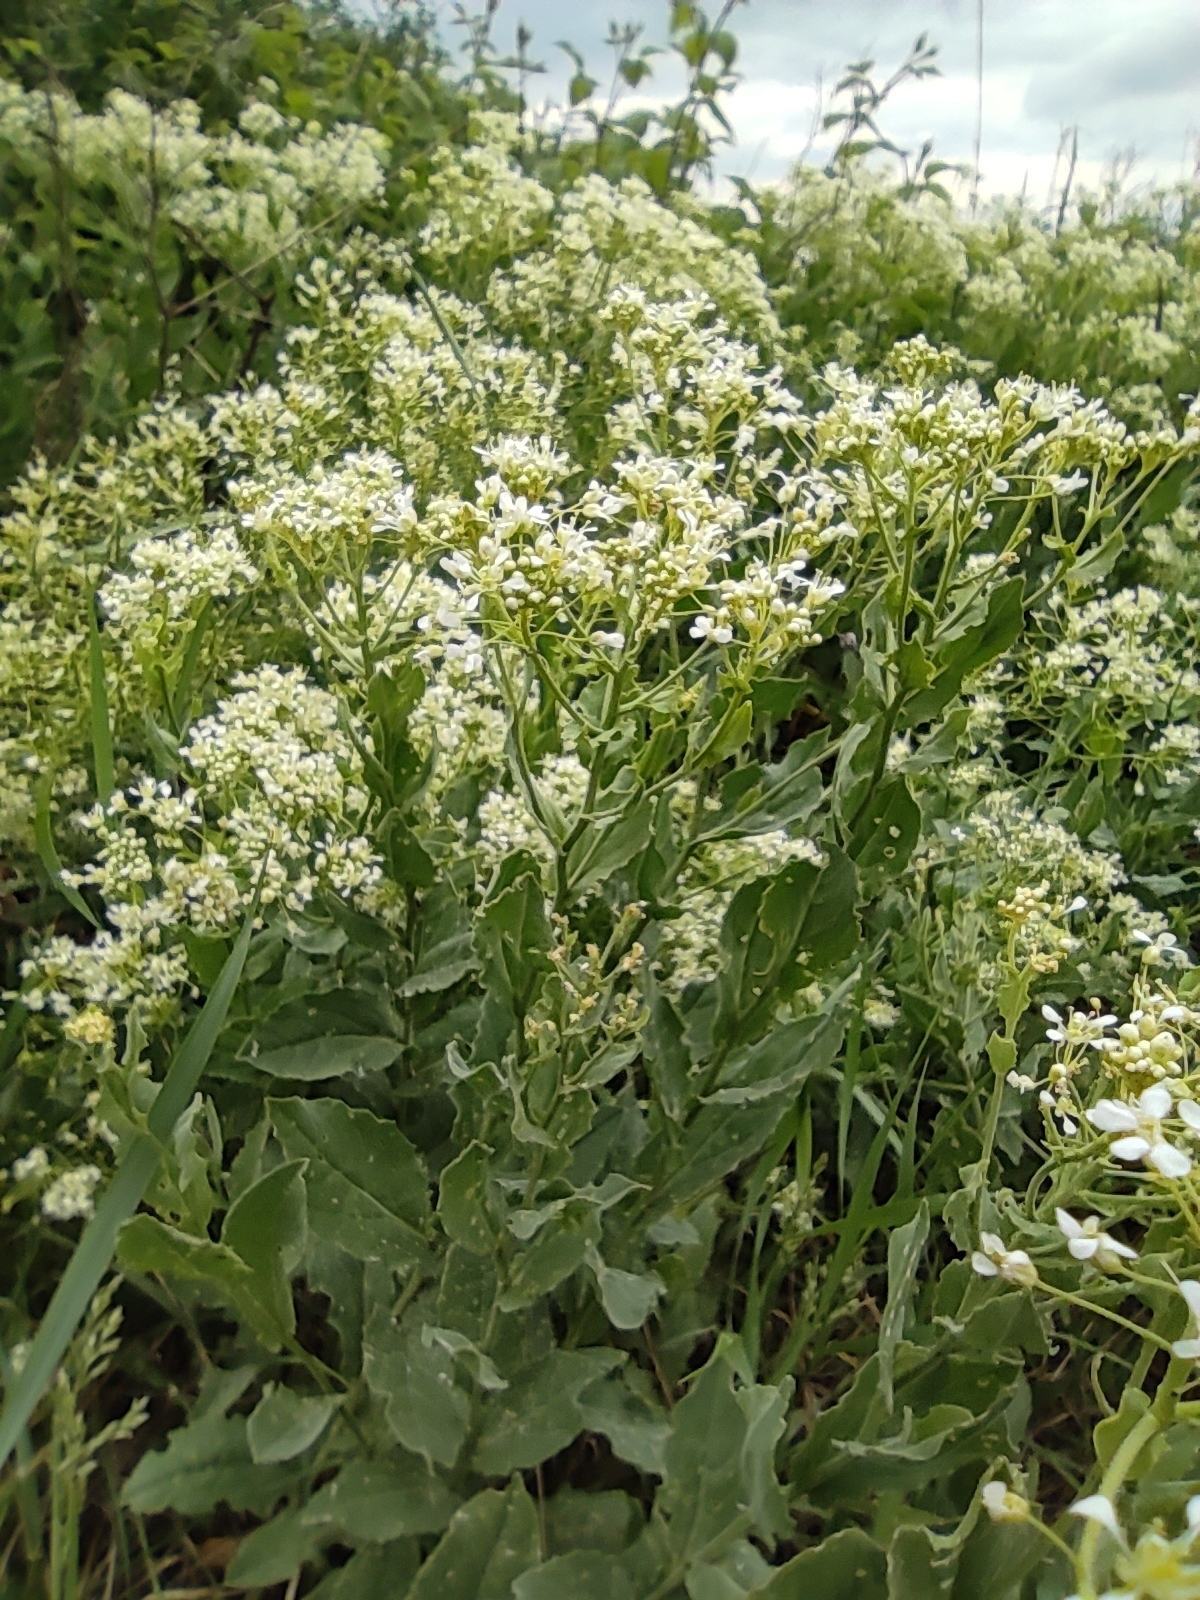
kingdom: Plantae
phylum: Tracheophyta
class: Magnoliopsida
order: Brassicales
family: Brassicaceae
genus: Lepidium
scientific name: Lepidium draba
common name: Hoary cress
